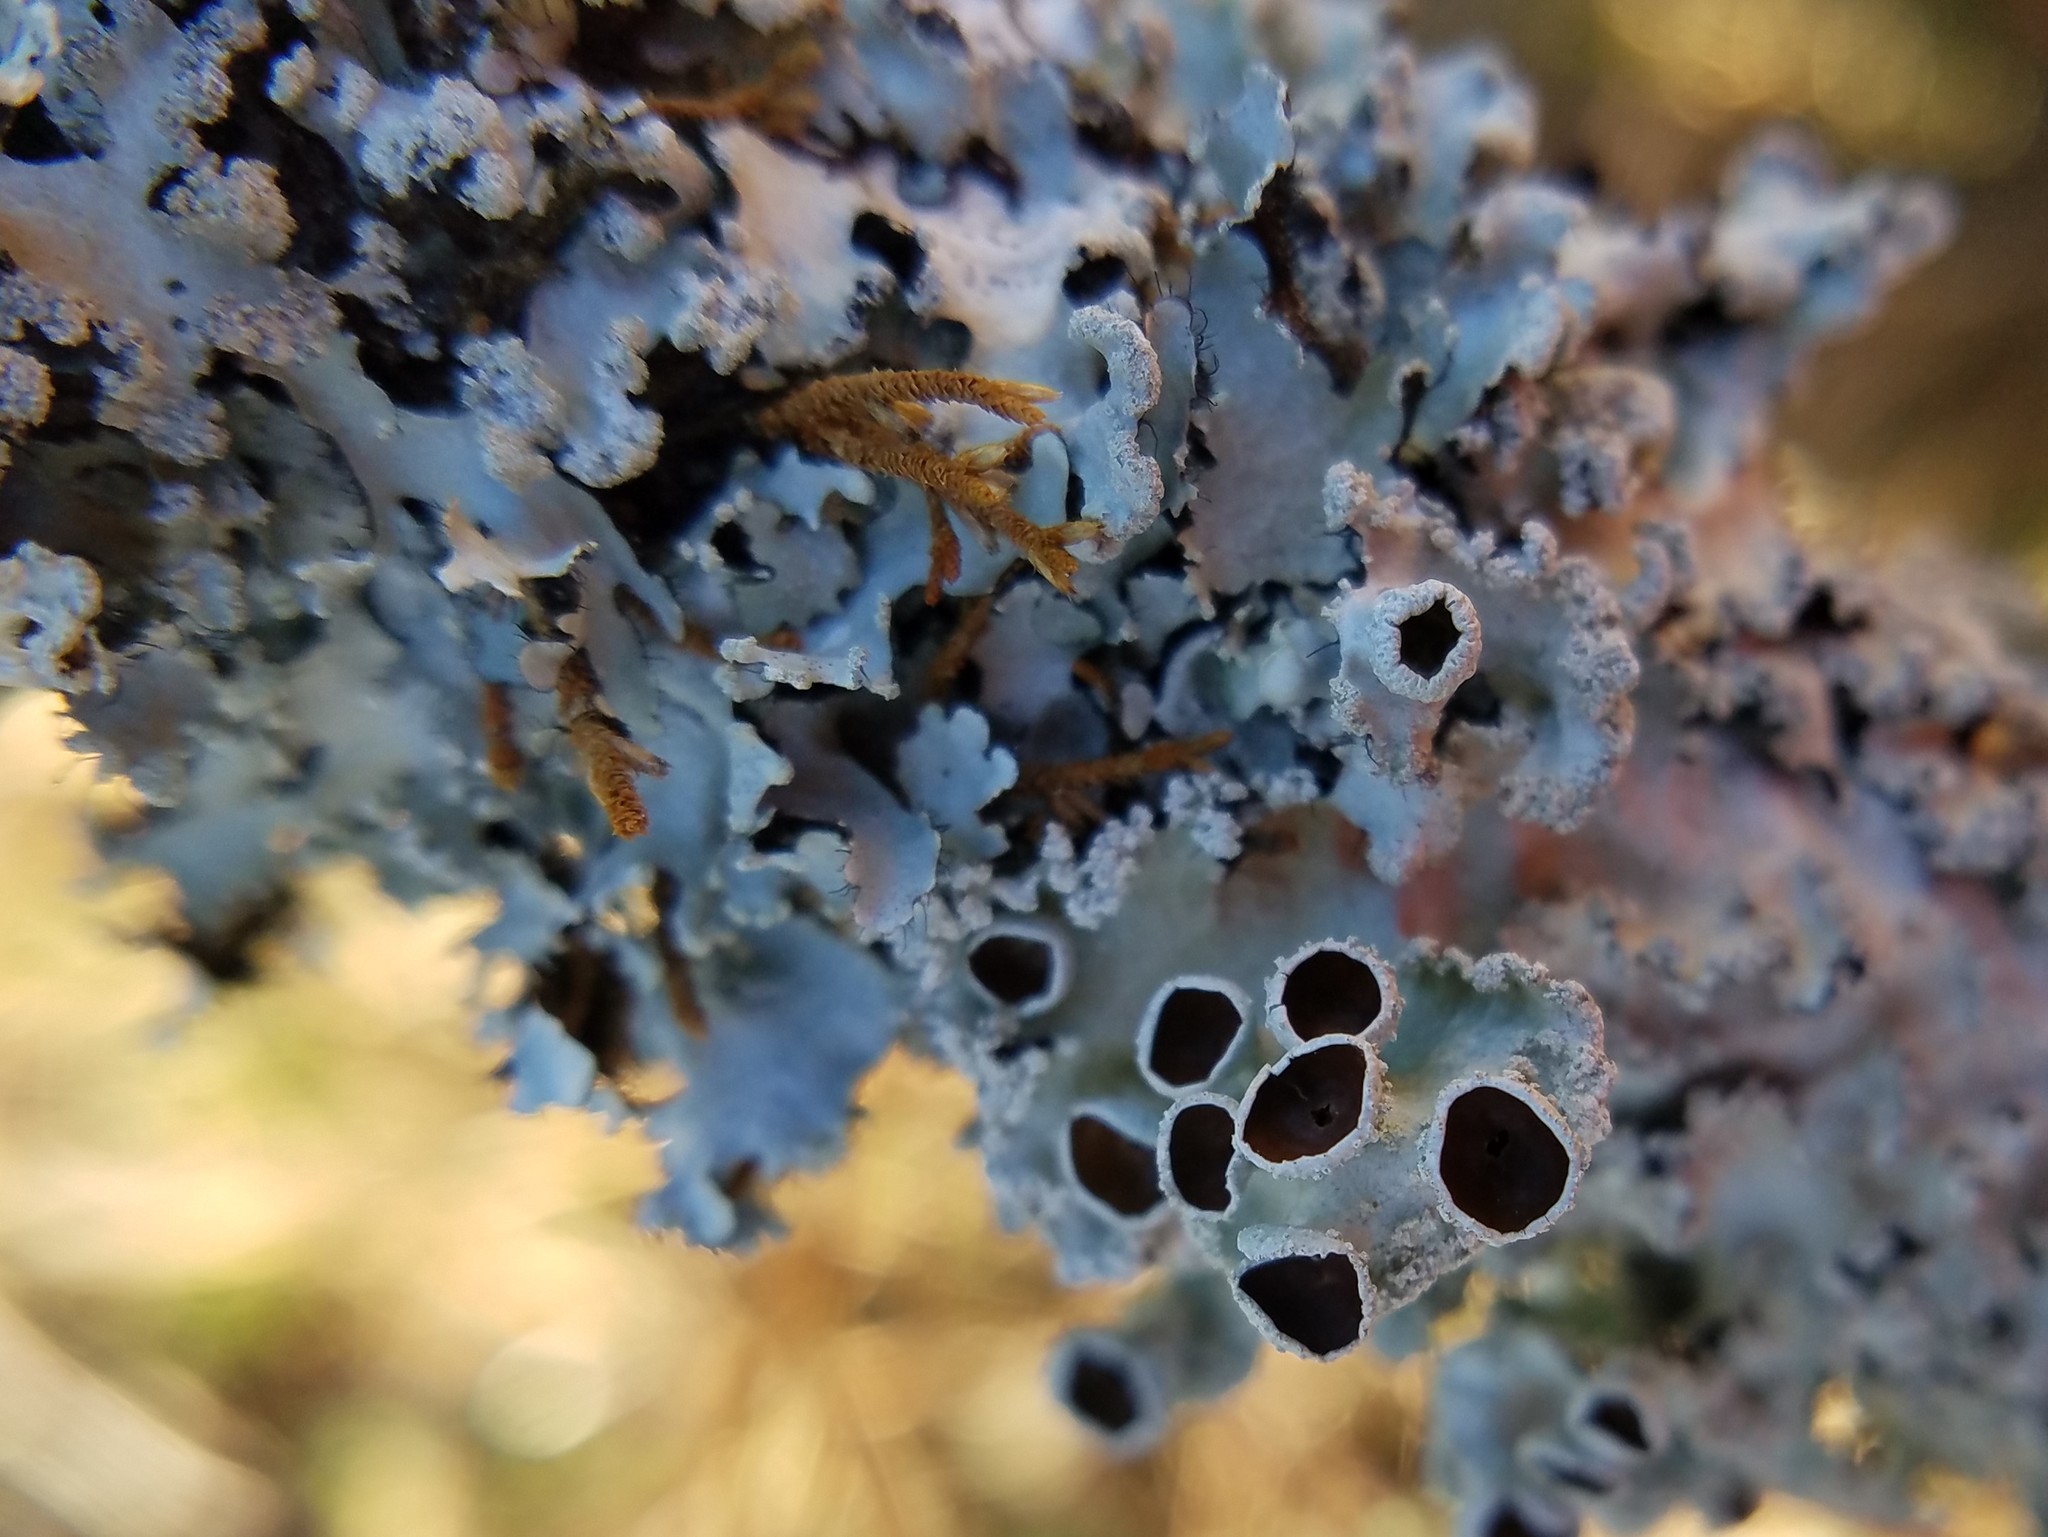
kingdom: Fungi
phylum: Ascomycota
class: Lecanoromycetes
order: Lecanorales
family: Parmeliaceae
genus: Rimelia
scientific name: Rimelia subisidiosa
